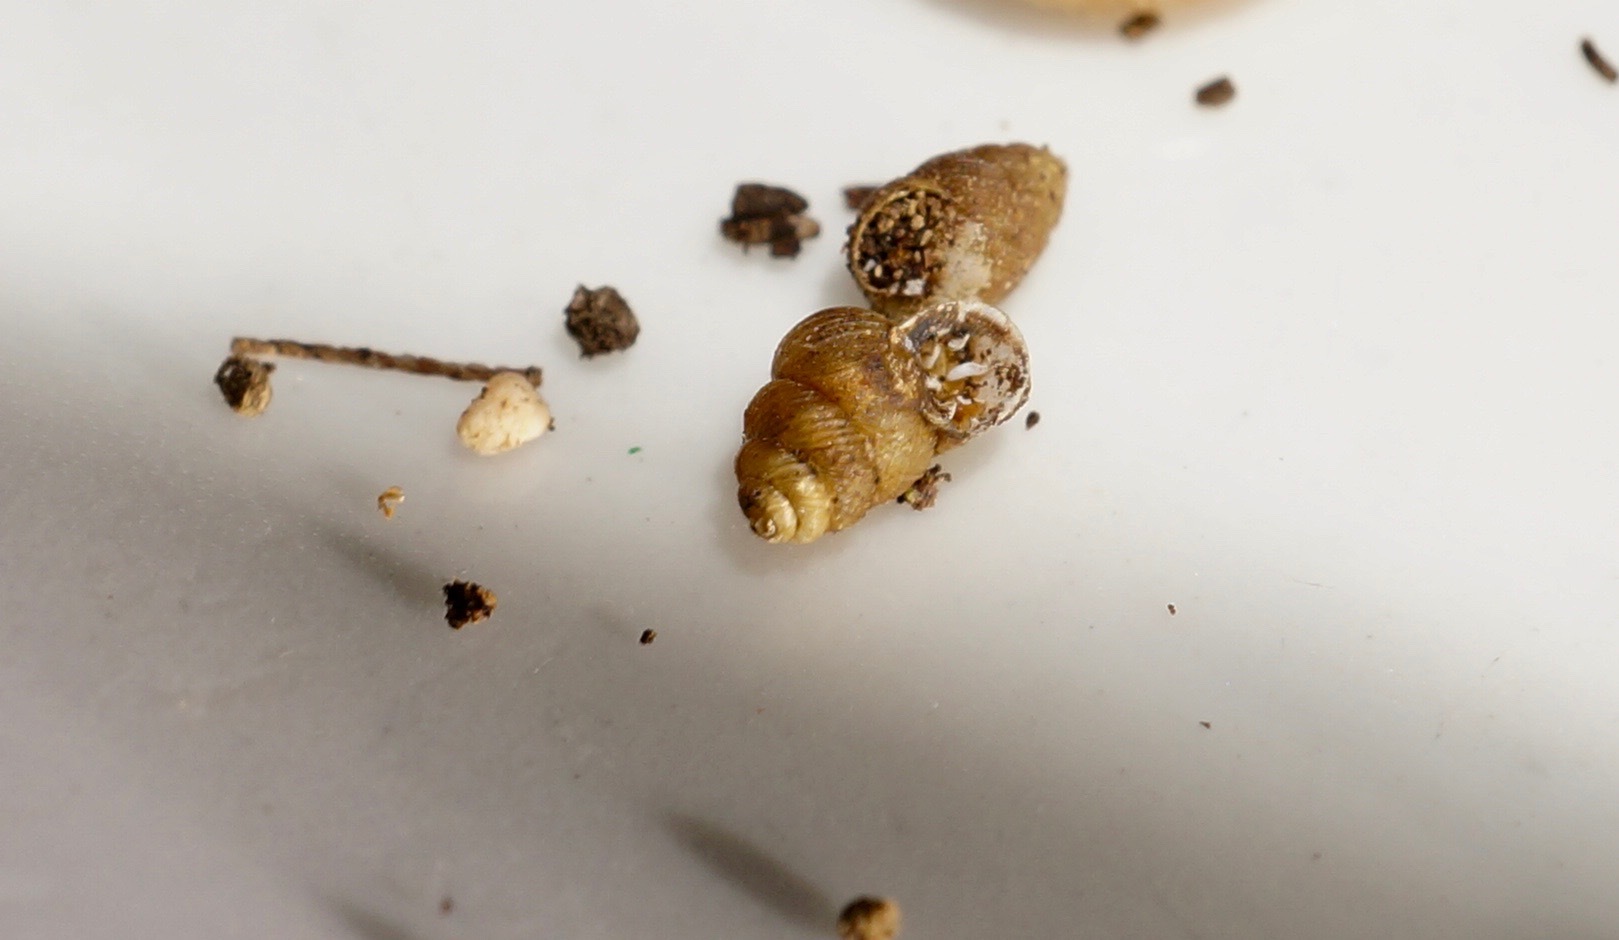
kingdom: Animalia
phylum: Mollusca
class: Gastropoda
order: Stylommatophora
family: Vertiginidae
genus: Nesopuparia
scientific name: Nesopuparia norfolkensis
